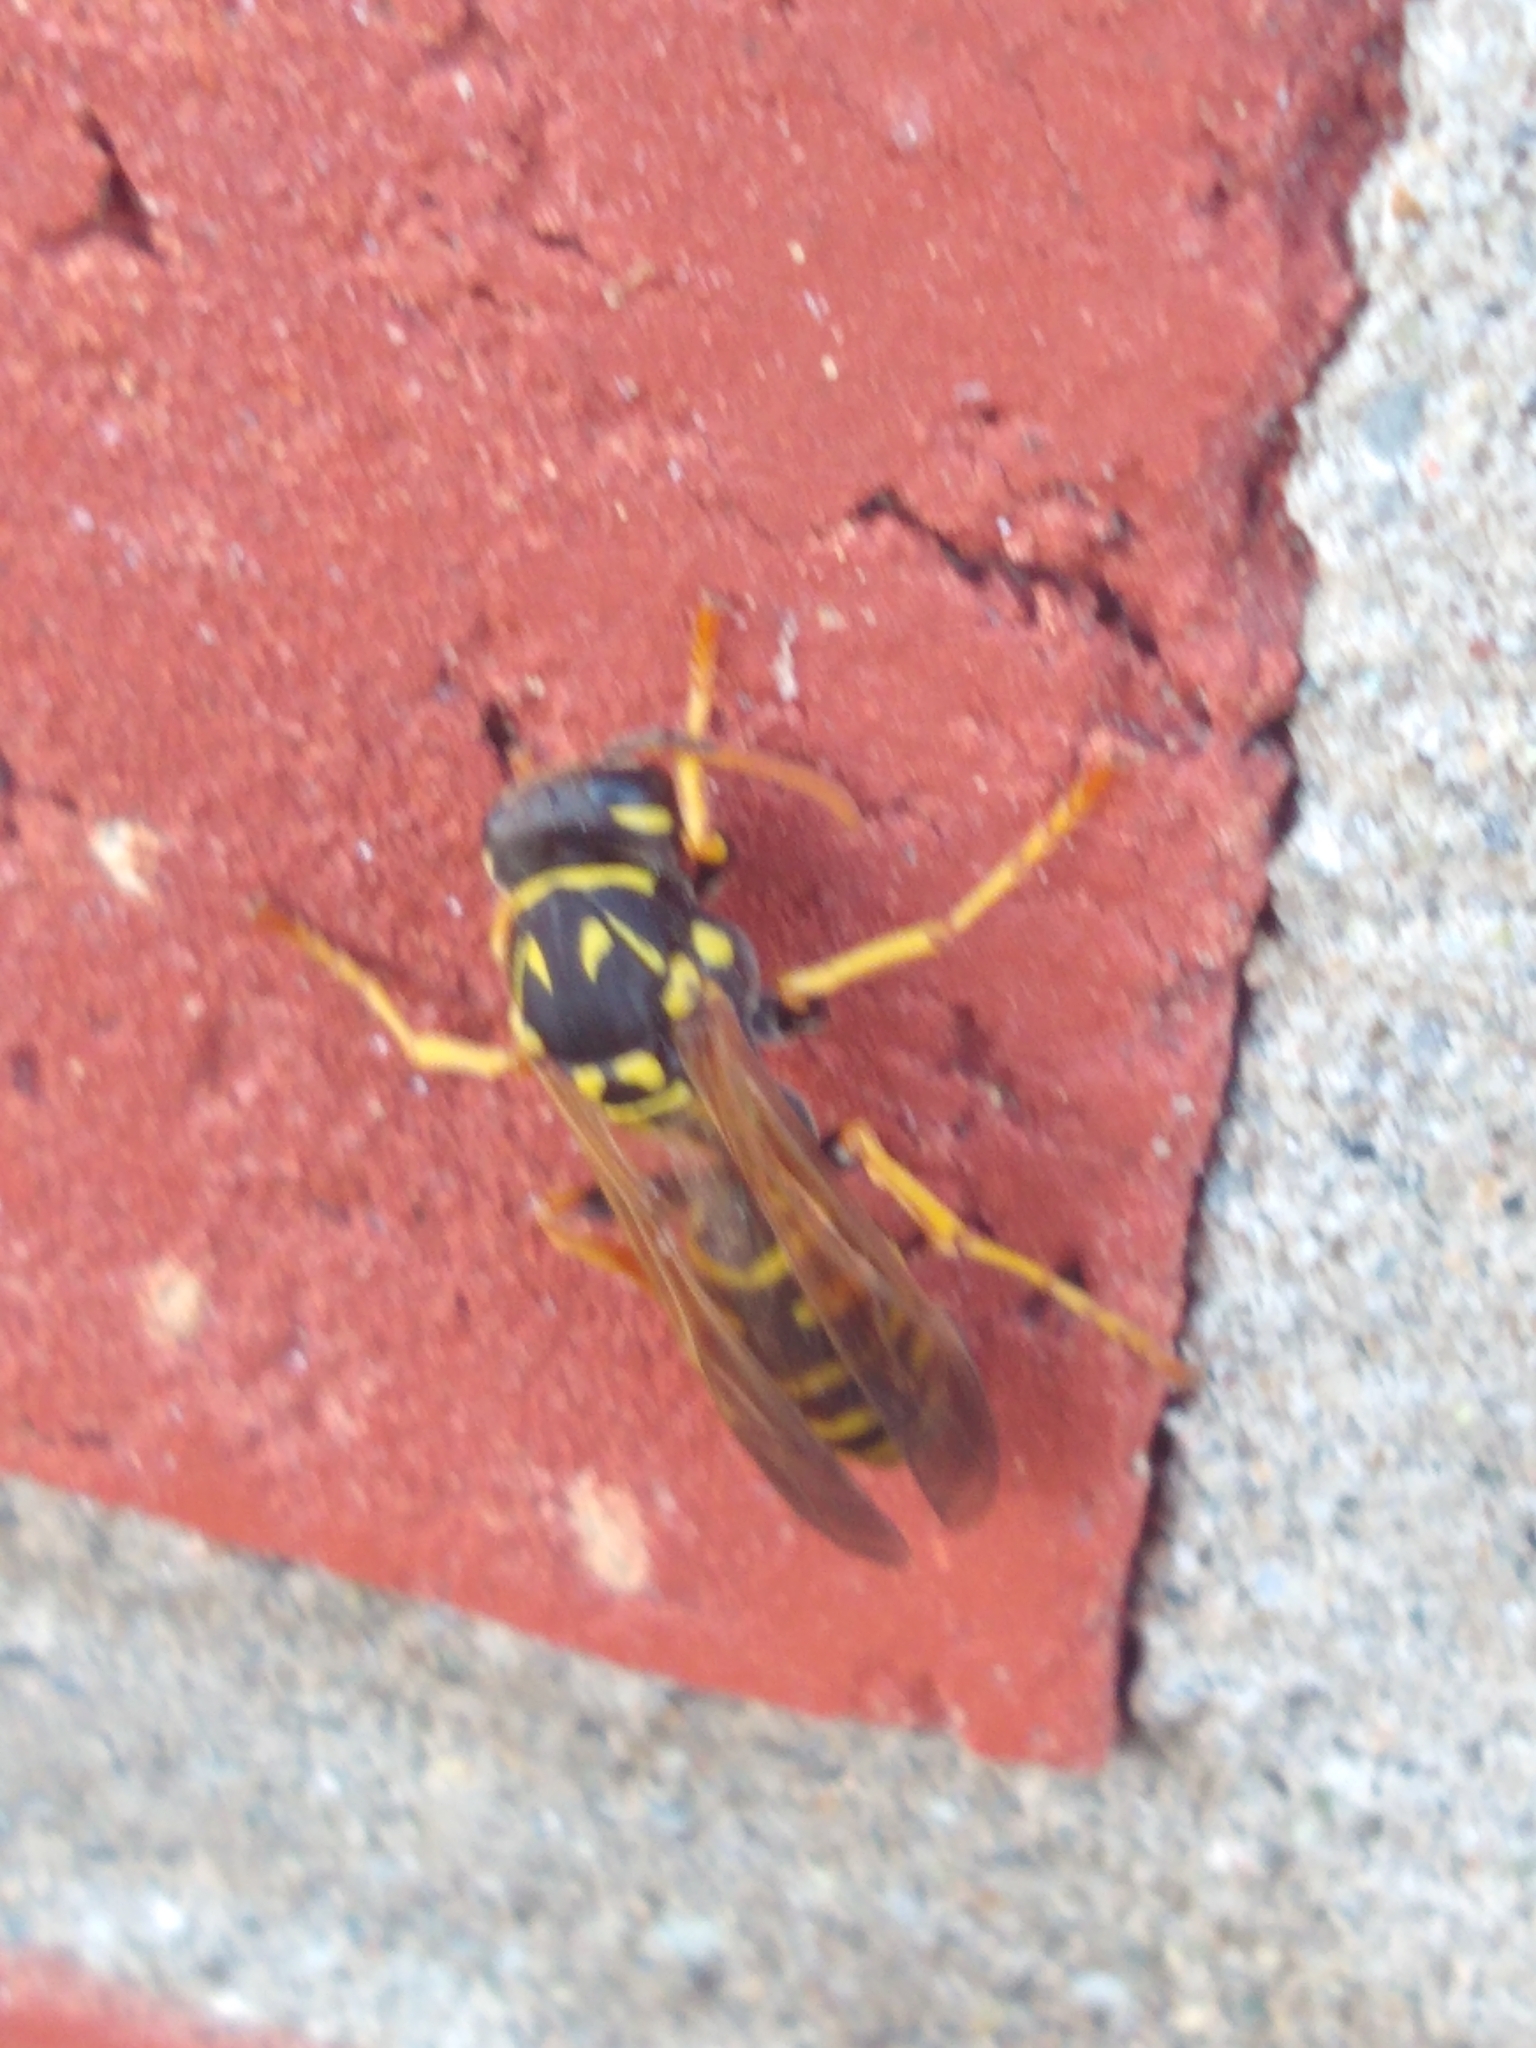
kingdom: Animalia
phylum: Arthropoda
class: Insecta
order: Hymenoptera
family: Eumenidae
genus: Polistes
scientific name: Polistes dominula
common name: Paper wasp
